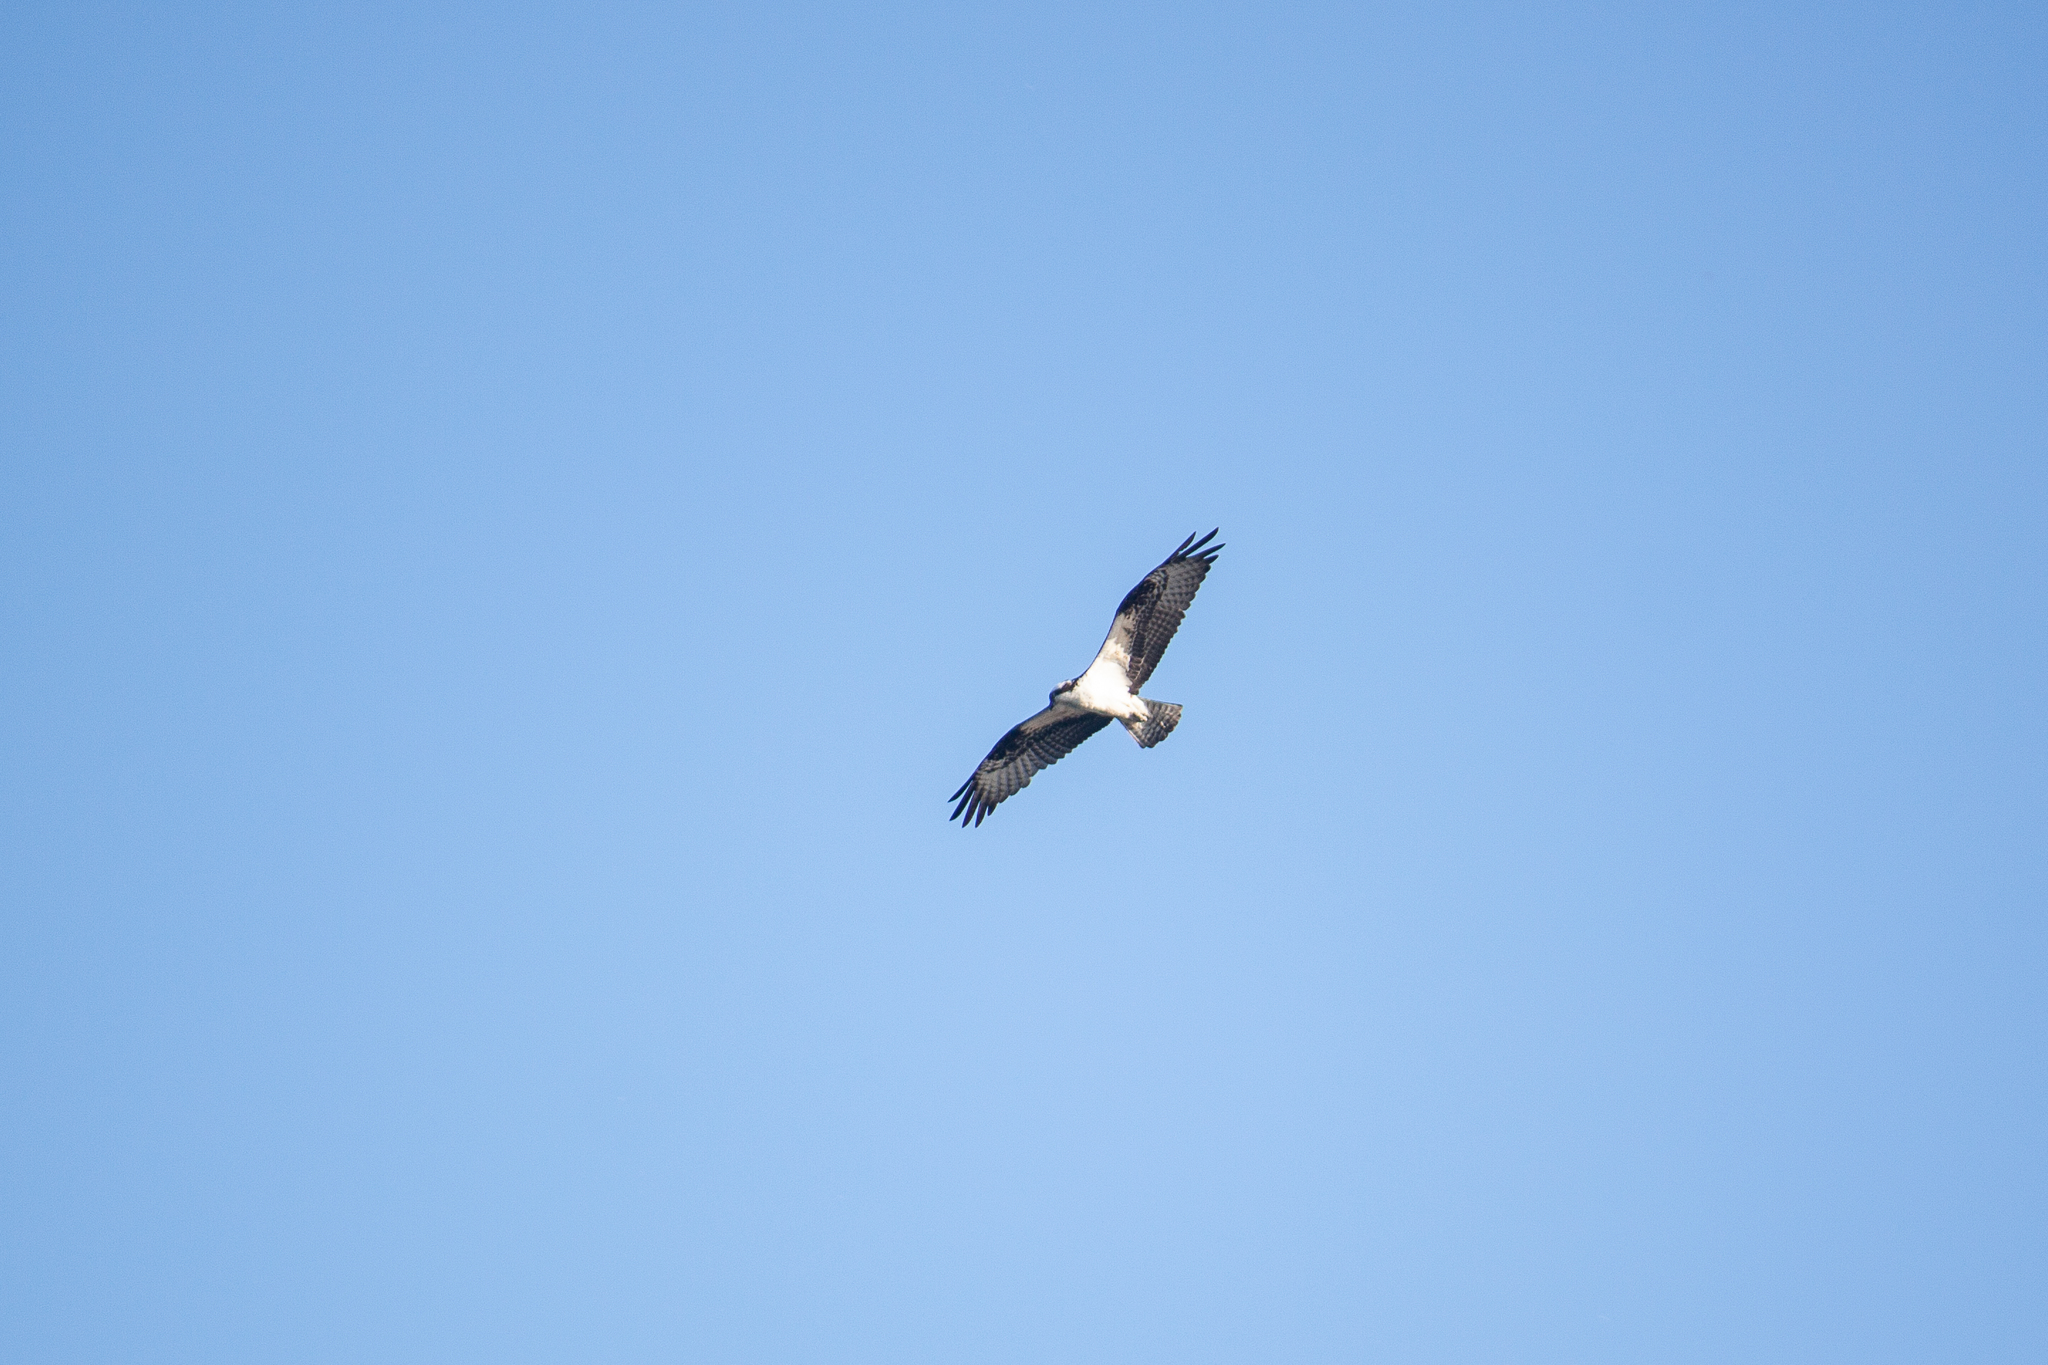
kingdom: Animalia
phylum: Chordata
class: Aves
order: Accipitriformes
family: Pandionidae
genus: Pandion
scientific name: Pandion haliaetus
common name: Osprey
